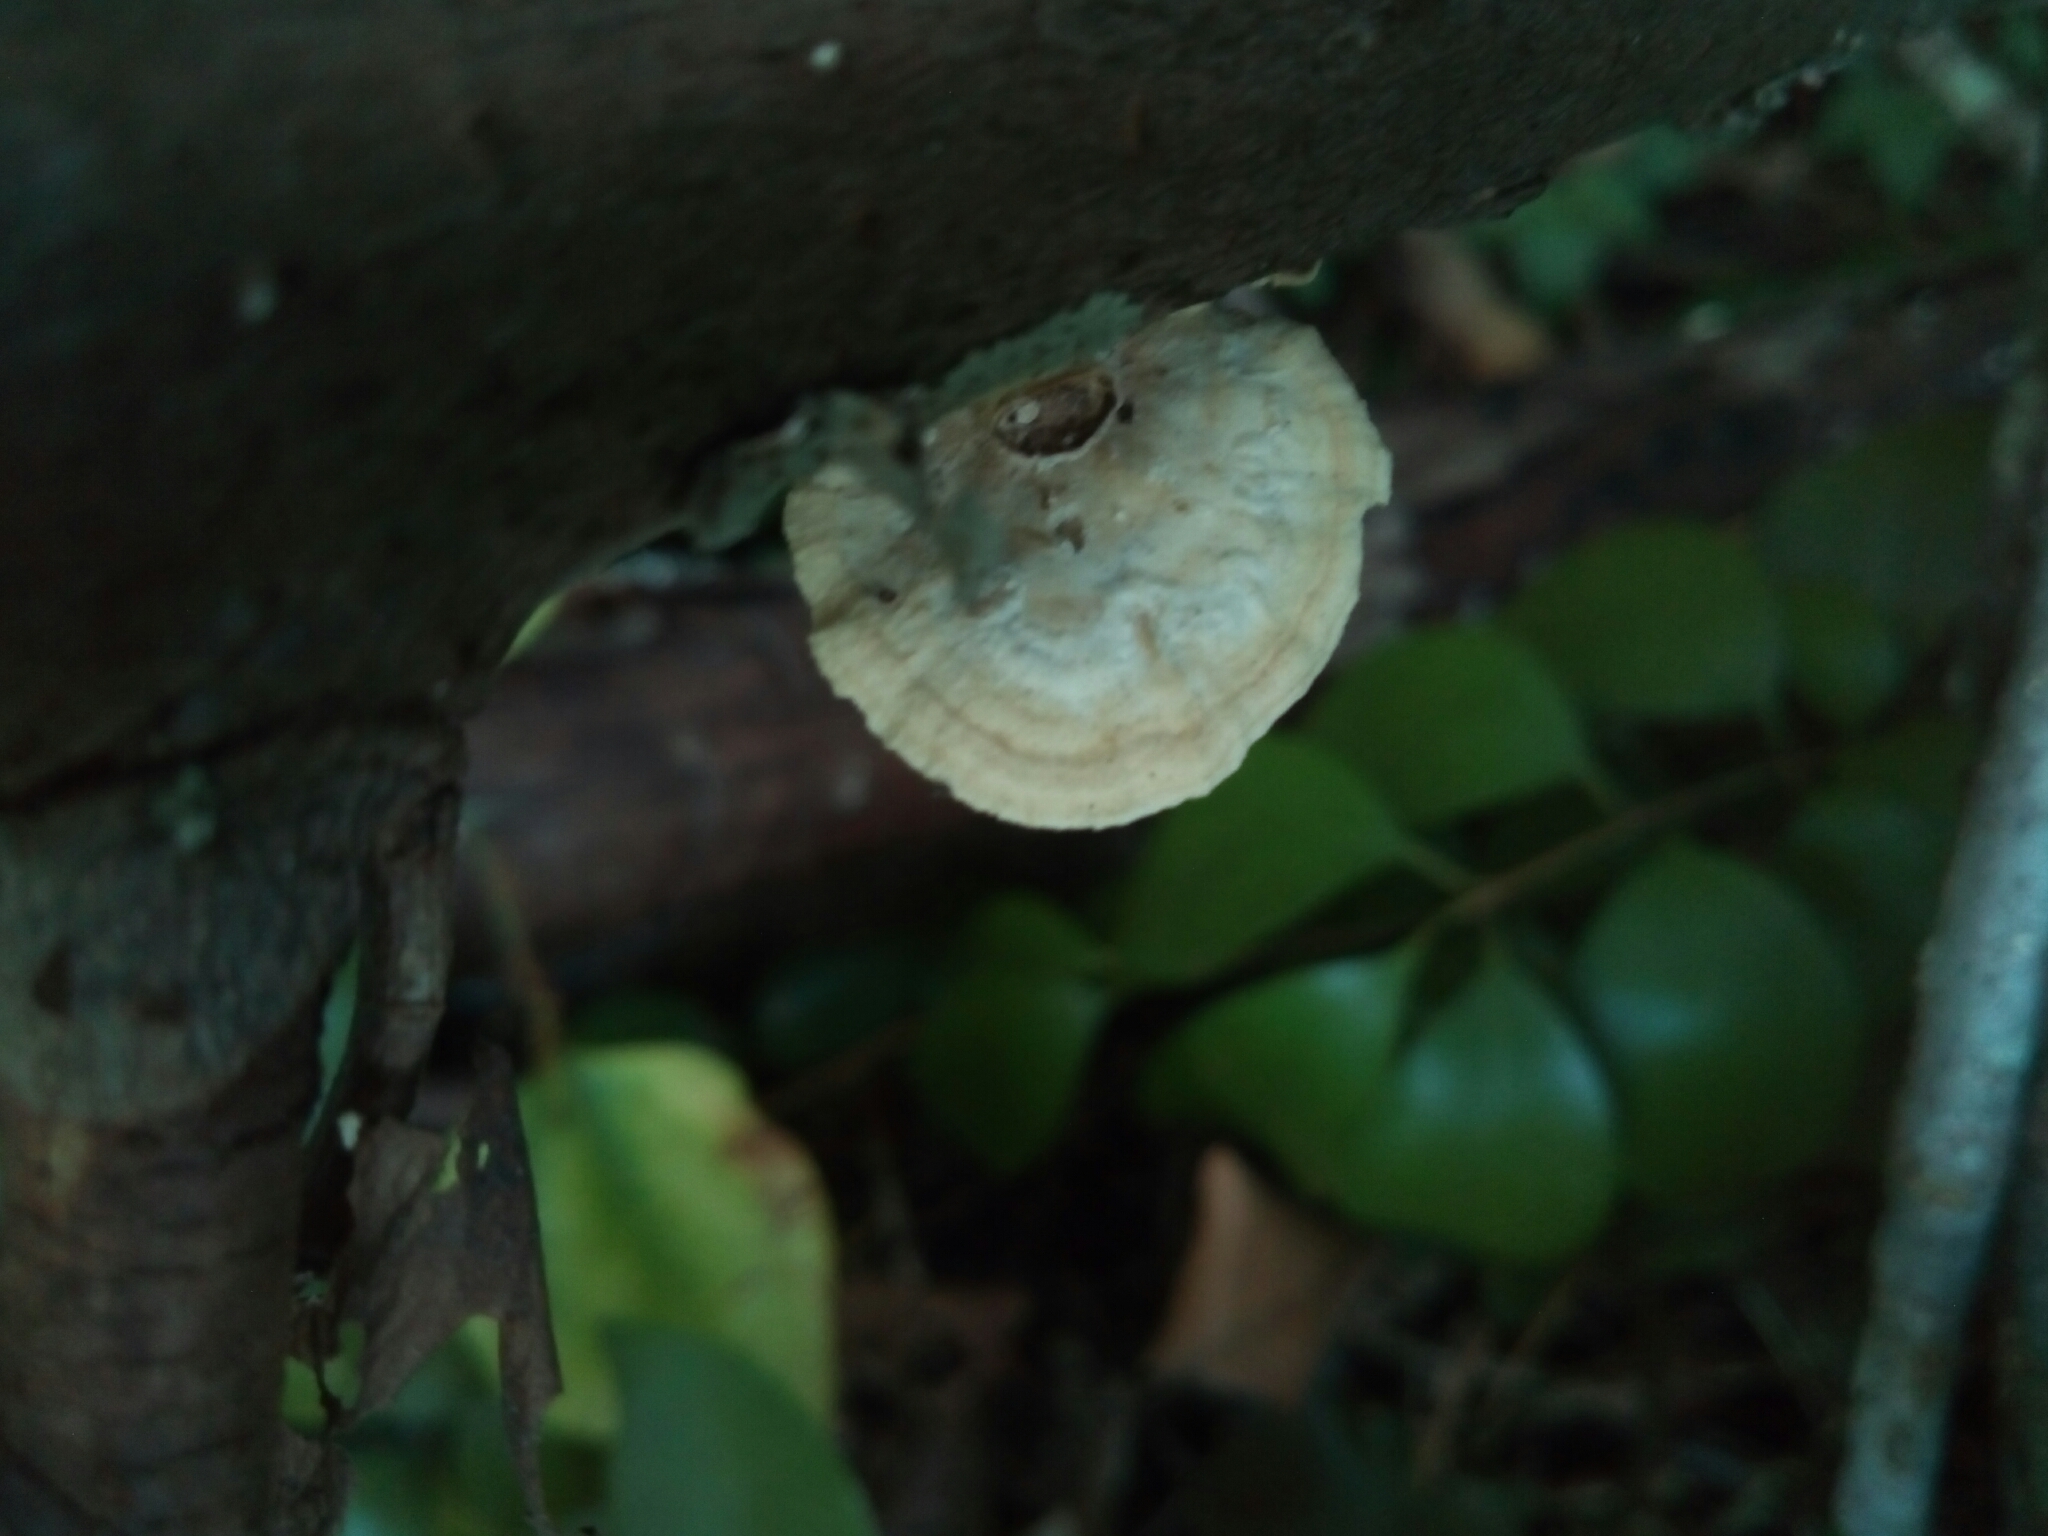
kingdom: Fungi
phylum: Basidiomycota
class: Agaricomycetes
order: Polyporales
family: Polyporaceae
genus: Poronidulus
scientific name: Poronidulus conchifer
